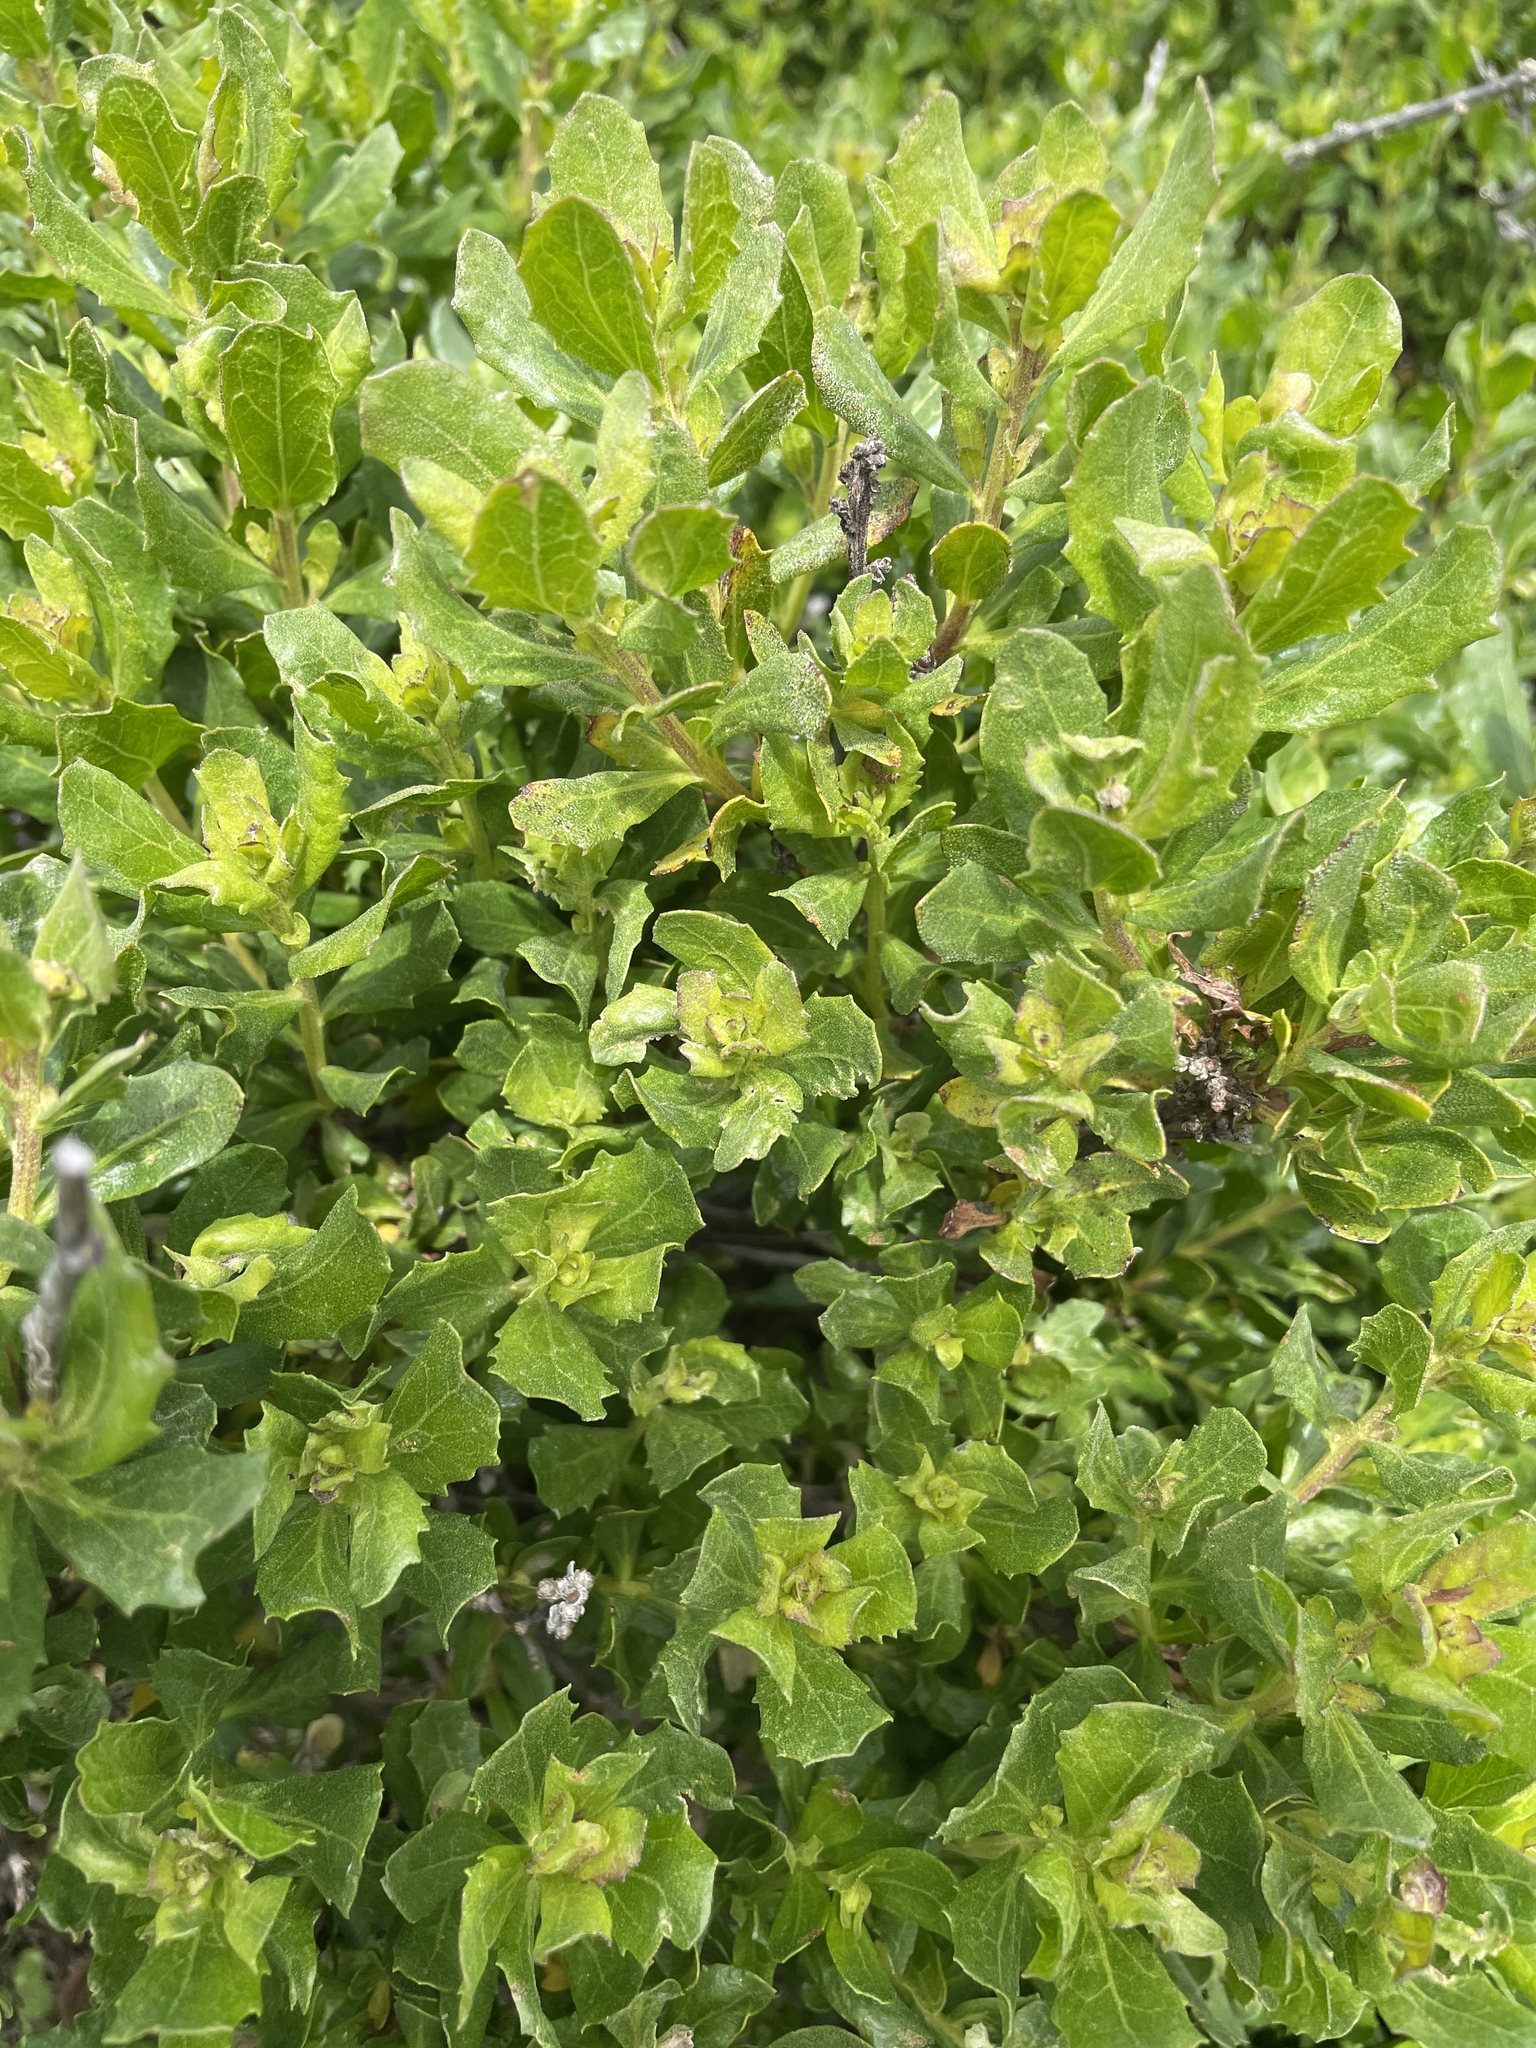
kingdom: Plantae
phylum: Tracheophyta
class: Magnoliopsida
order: Asterales
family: Asteraceae
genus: Baccharis
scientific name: Baccharis pilularis
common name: Coyotebrush
